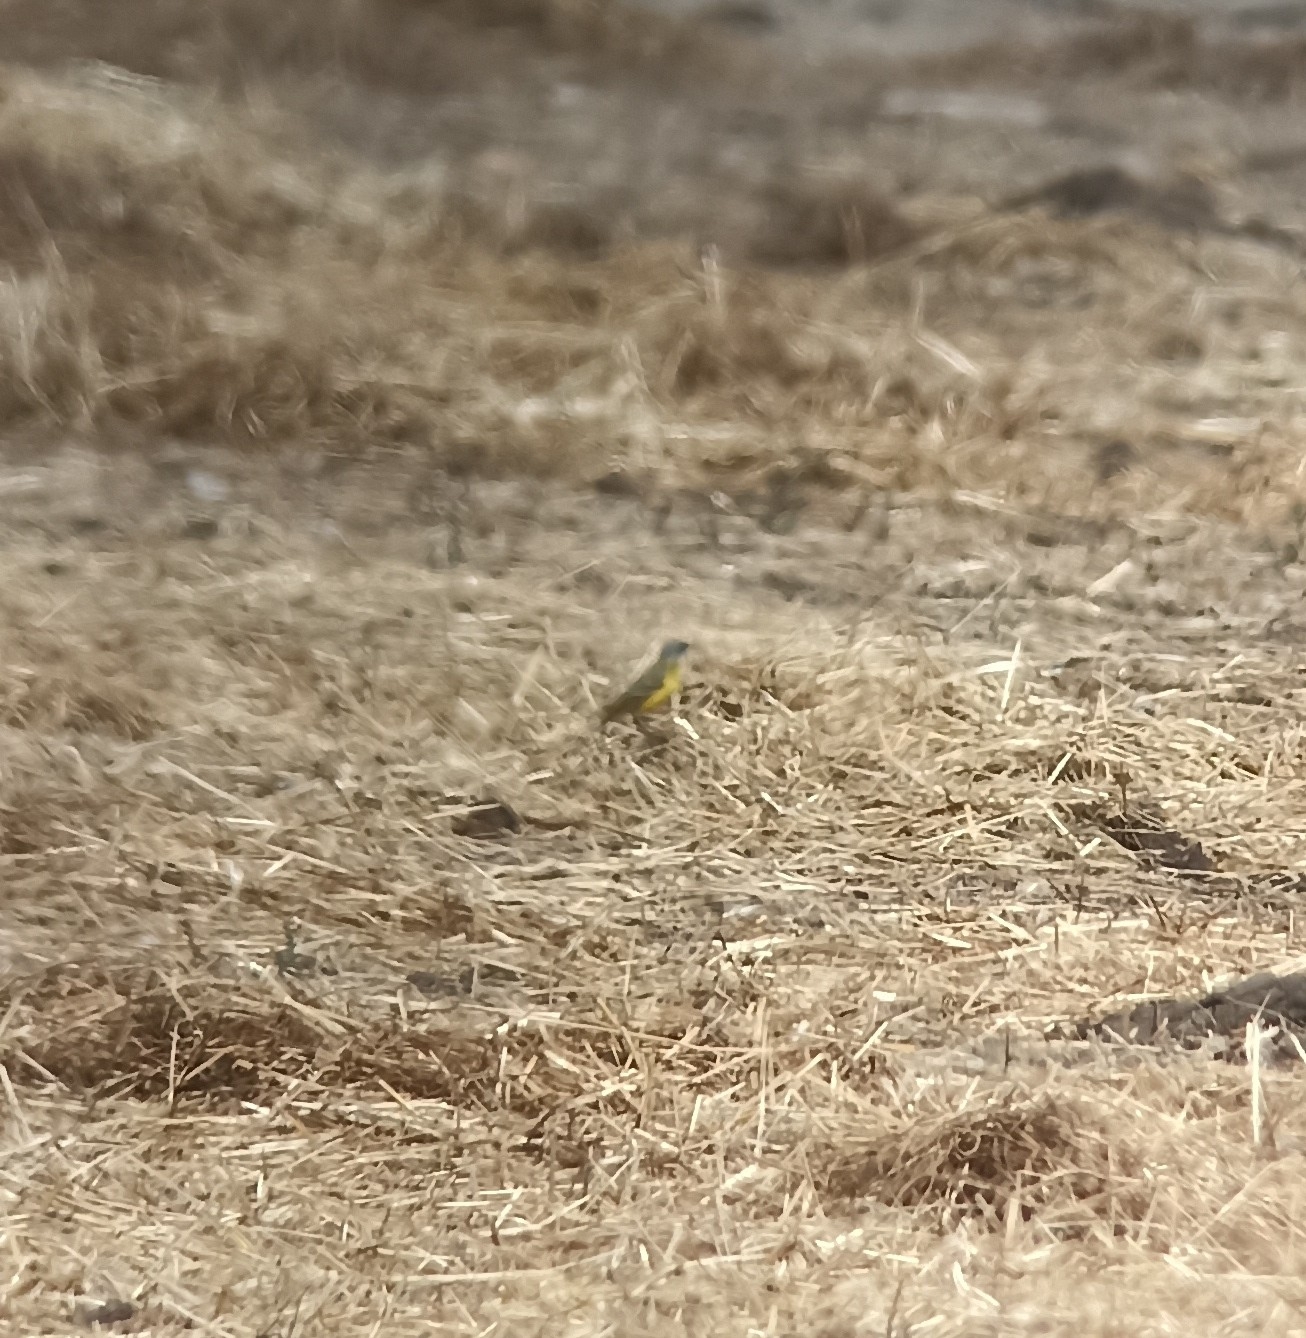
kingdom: Animalia
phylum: Chordata
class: Aves
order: Passeriformes
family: Motacillidae
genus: Motacilla
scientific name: Motacilla flava
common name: Western yellow wagtail
